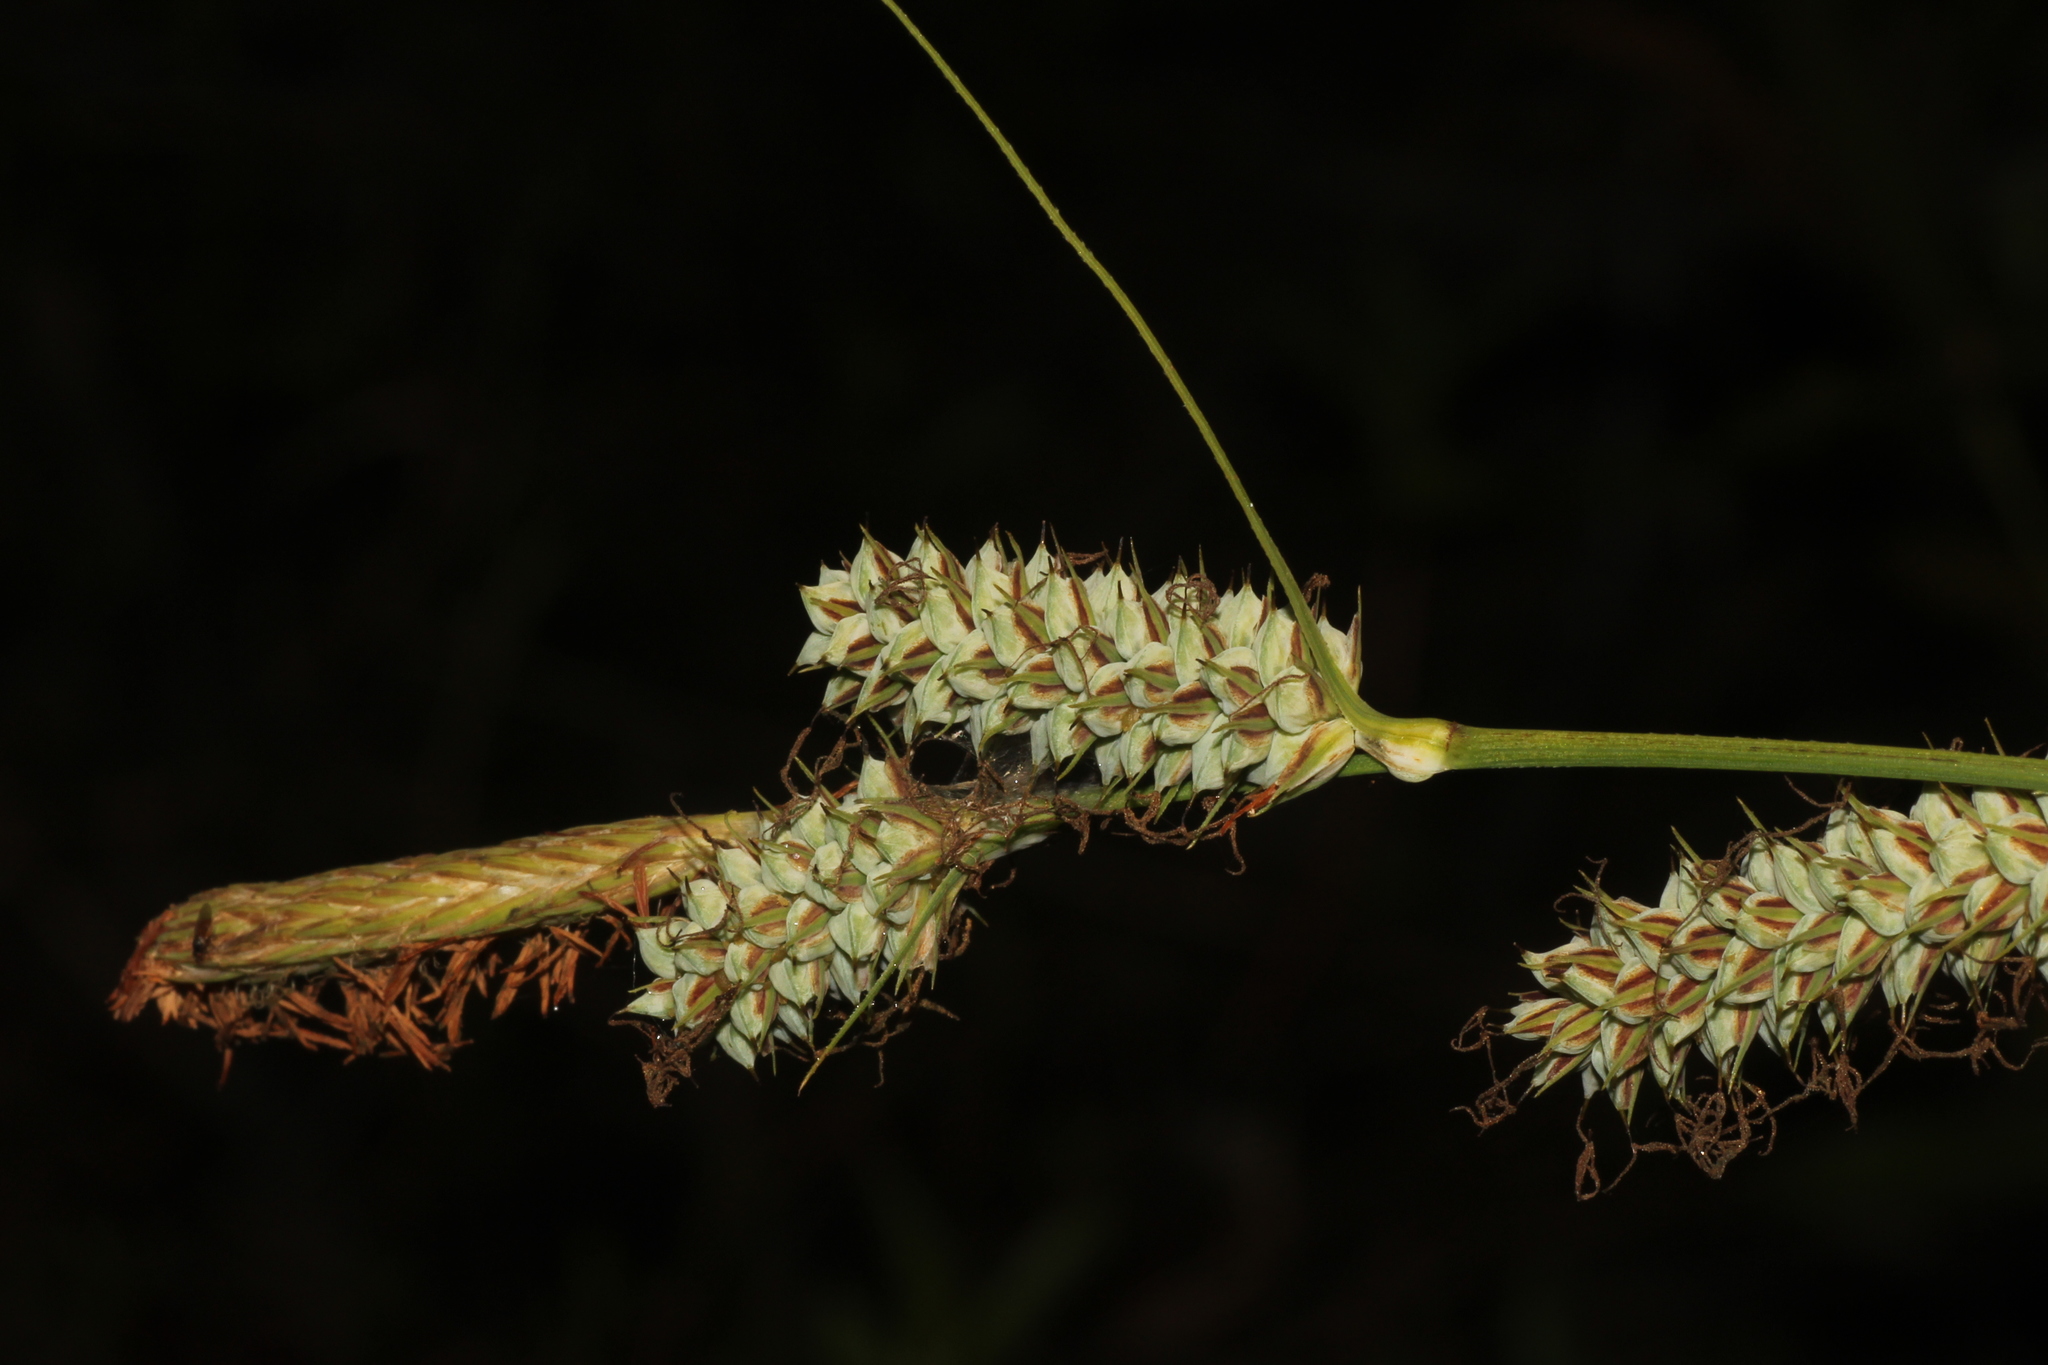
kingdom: Plantae
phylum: Tracheophyta
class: Liliopsida
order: Poales
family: Cyperaceae
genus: Carex
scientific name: Carex verrucosa
